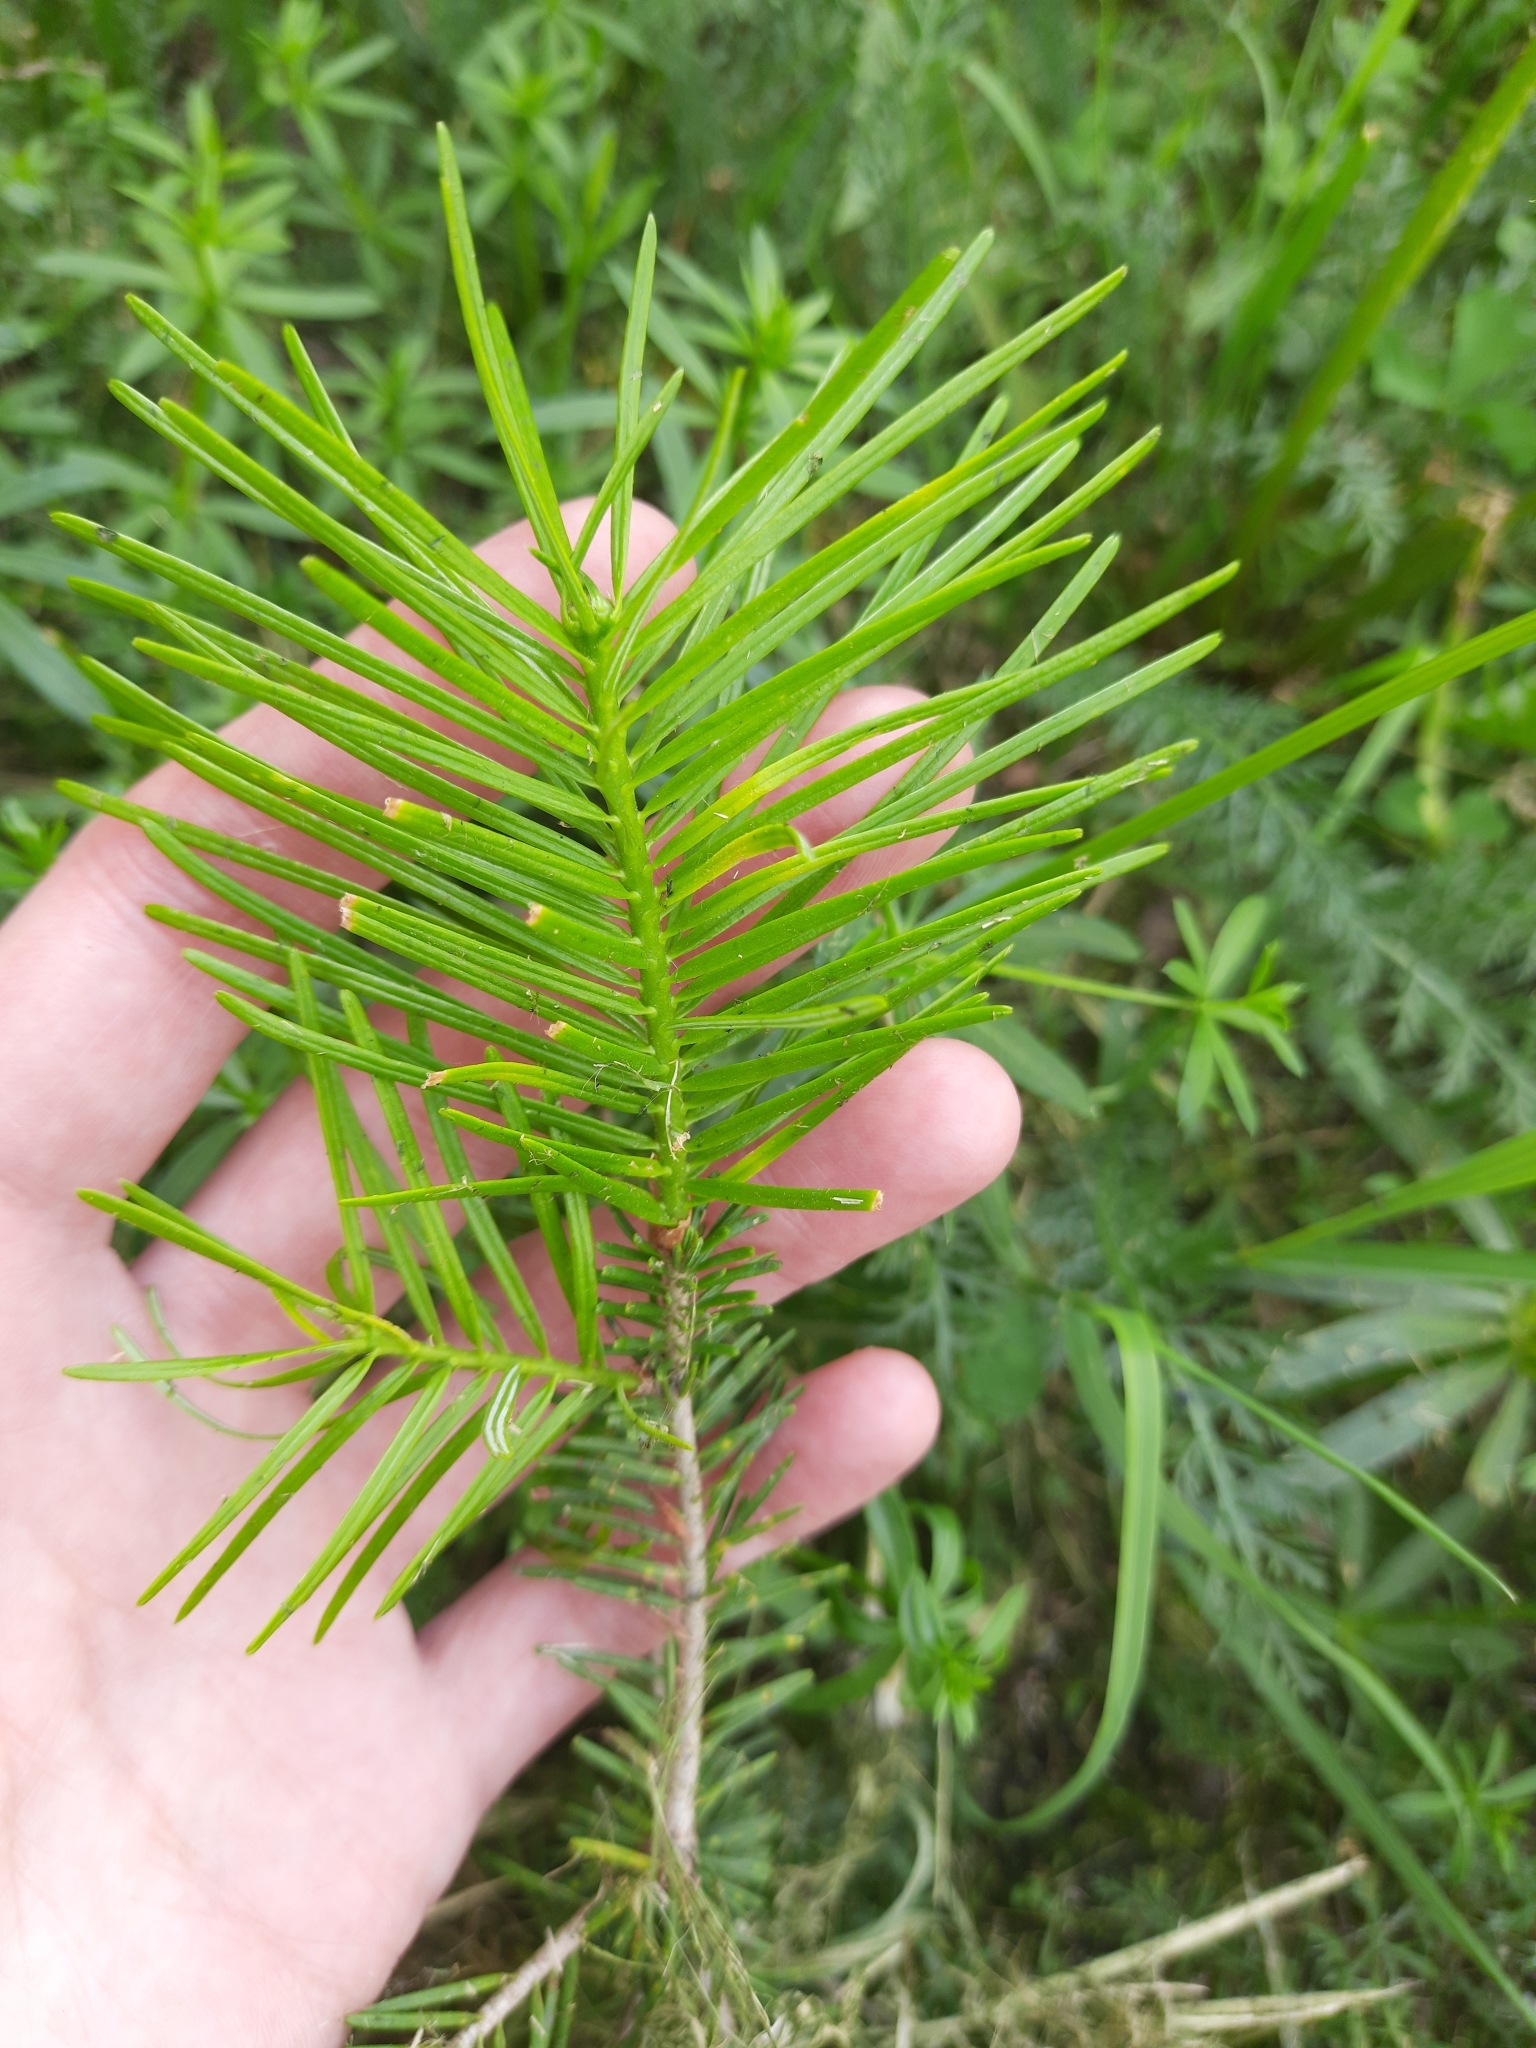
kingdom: Plantae
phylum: Tracheophyta
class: Pinopsida
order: Pinales
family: Pinaceae
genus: Abies
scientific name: Abies sibirica
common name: Siberian fir
